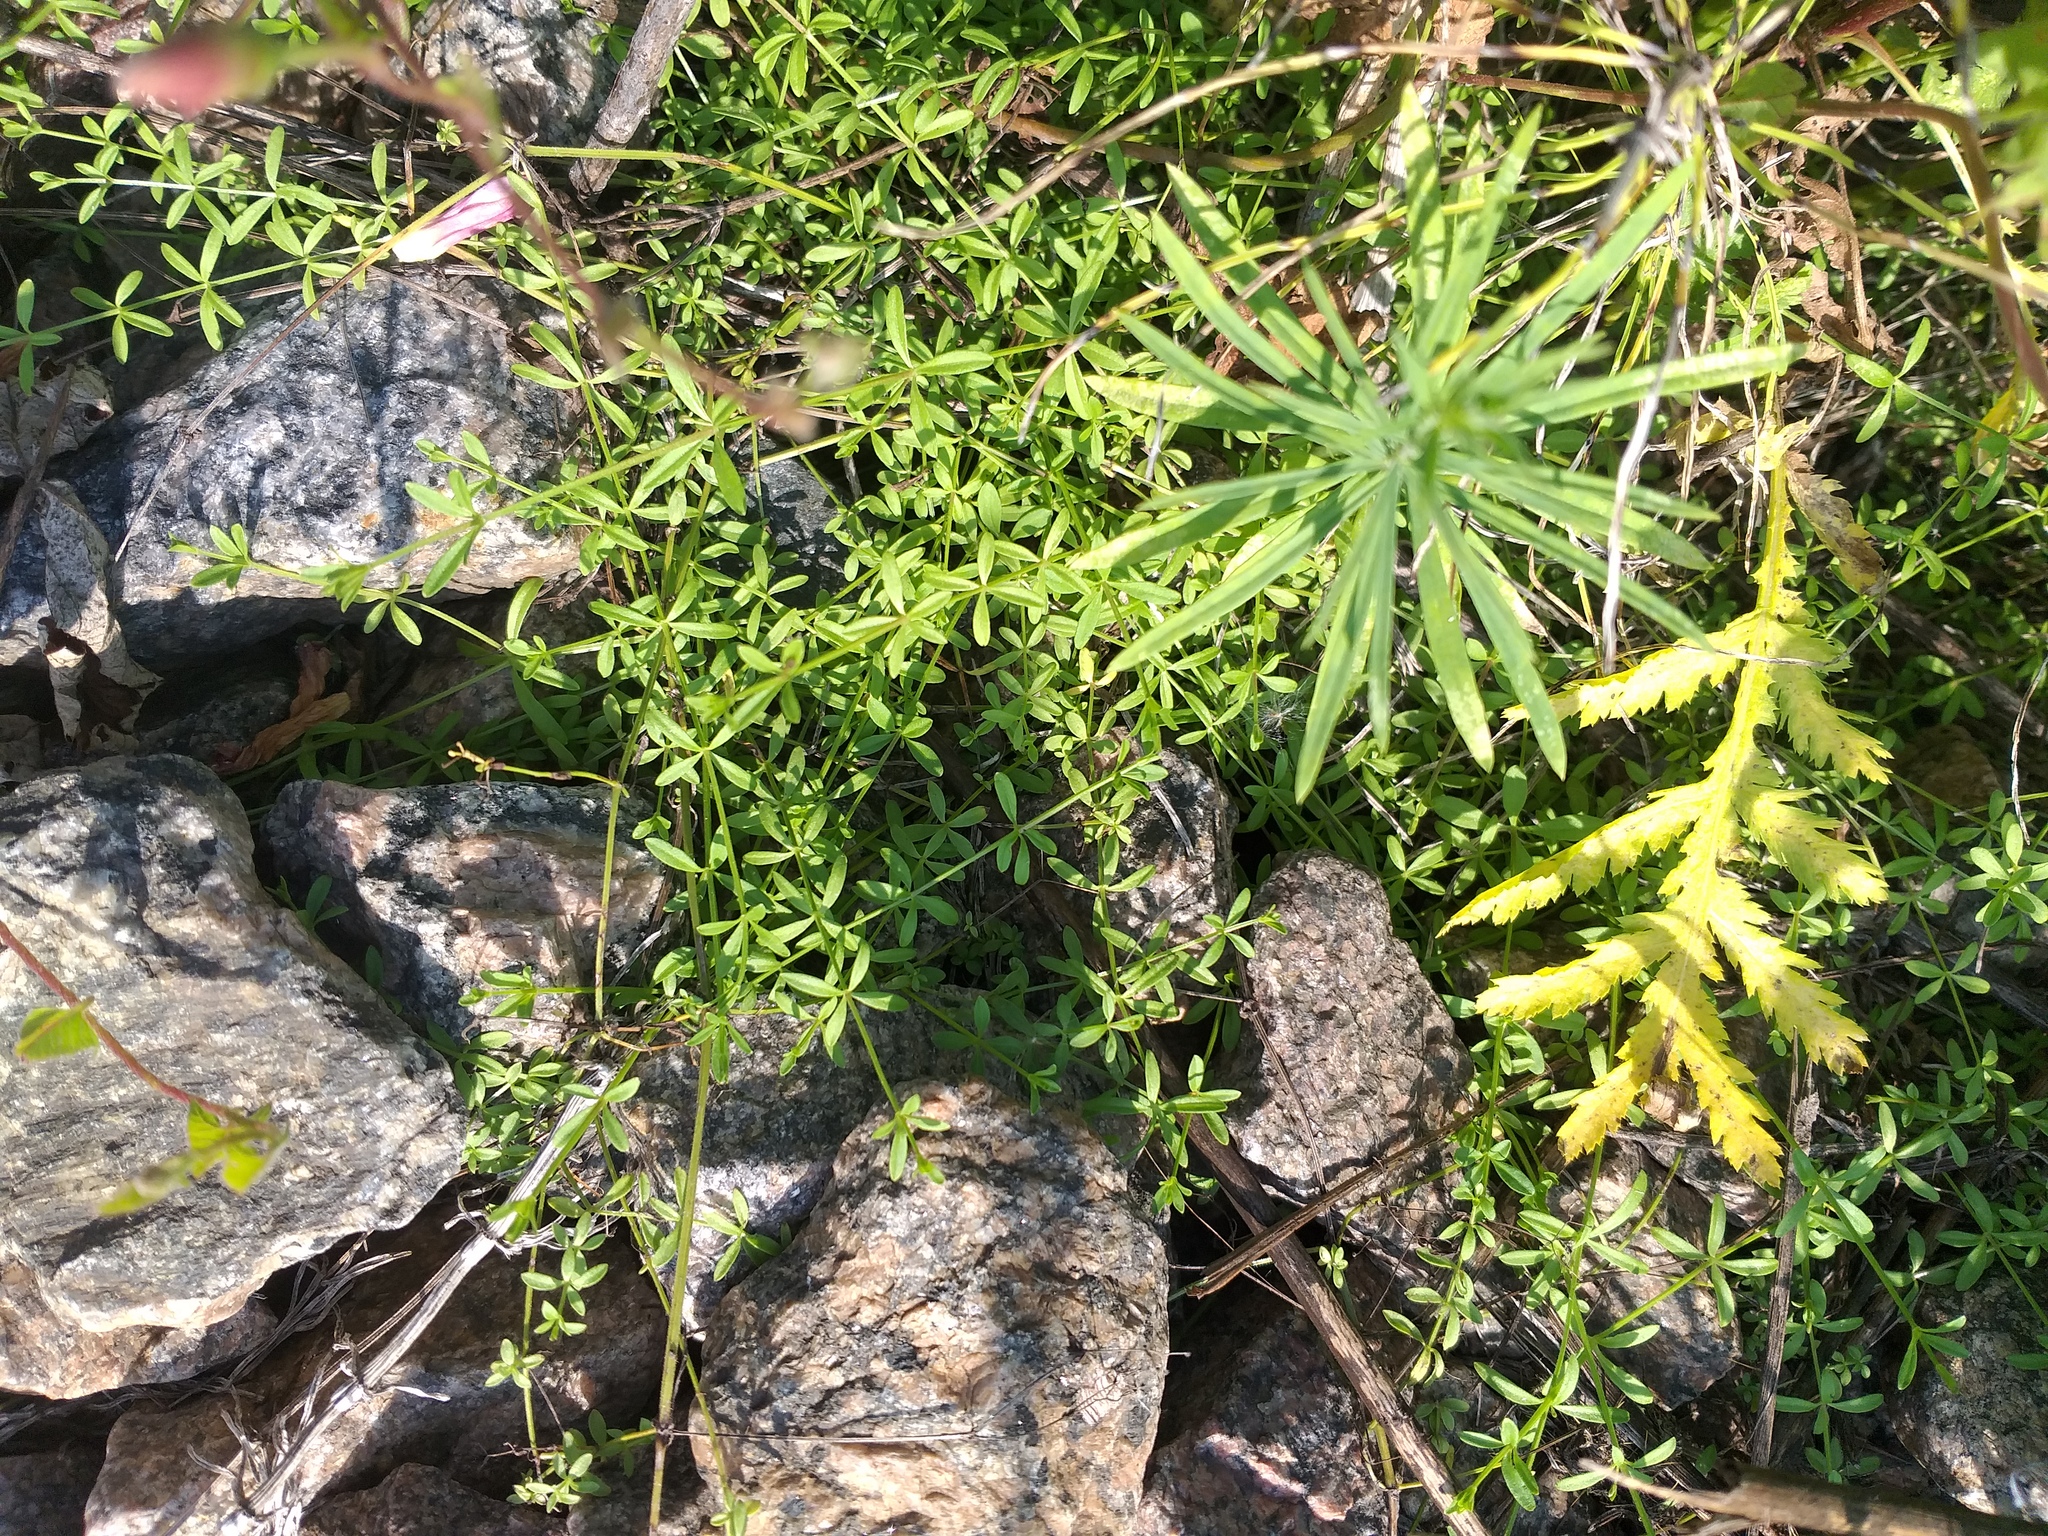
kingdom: Plantae
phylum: Tracheophyta
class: Magnoliopsida
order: Gentianales
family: Rubiaceae
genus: Galium
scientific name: Galium palustre
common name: Common marsh-bedstraw
